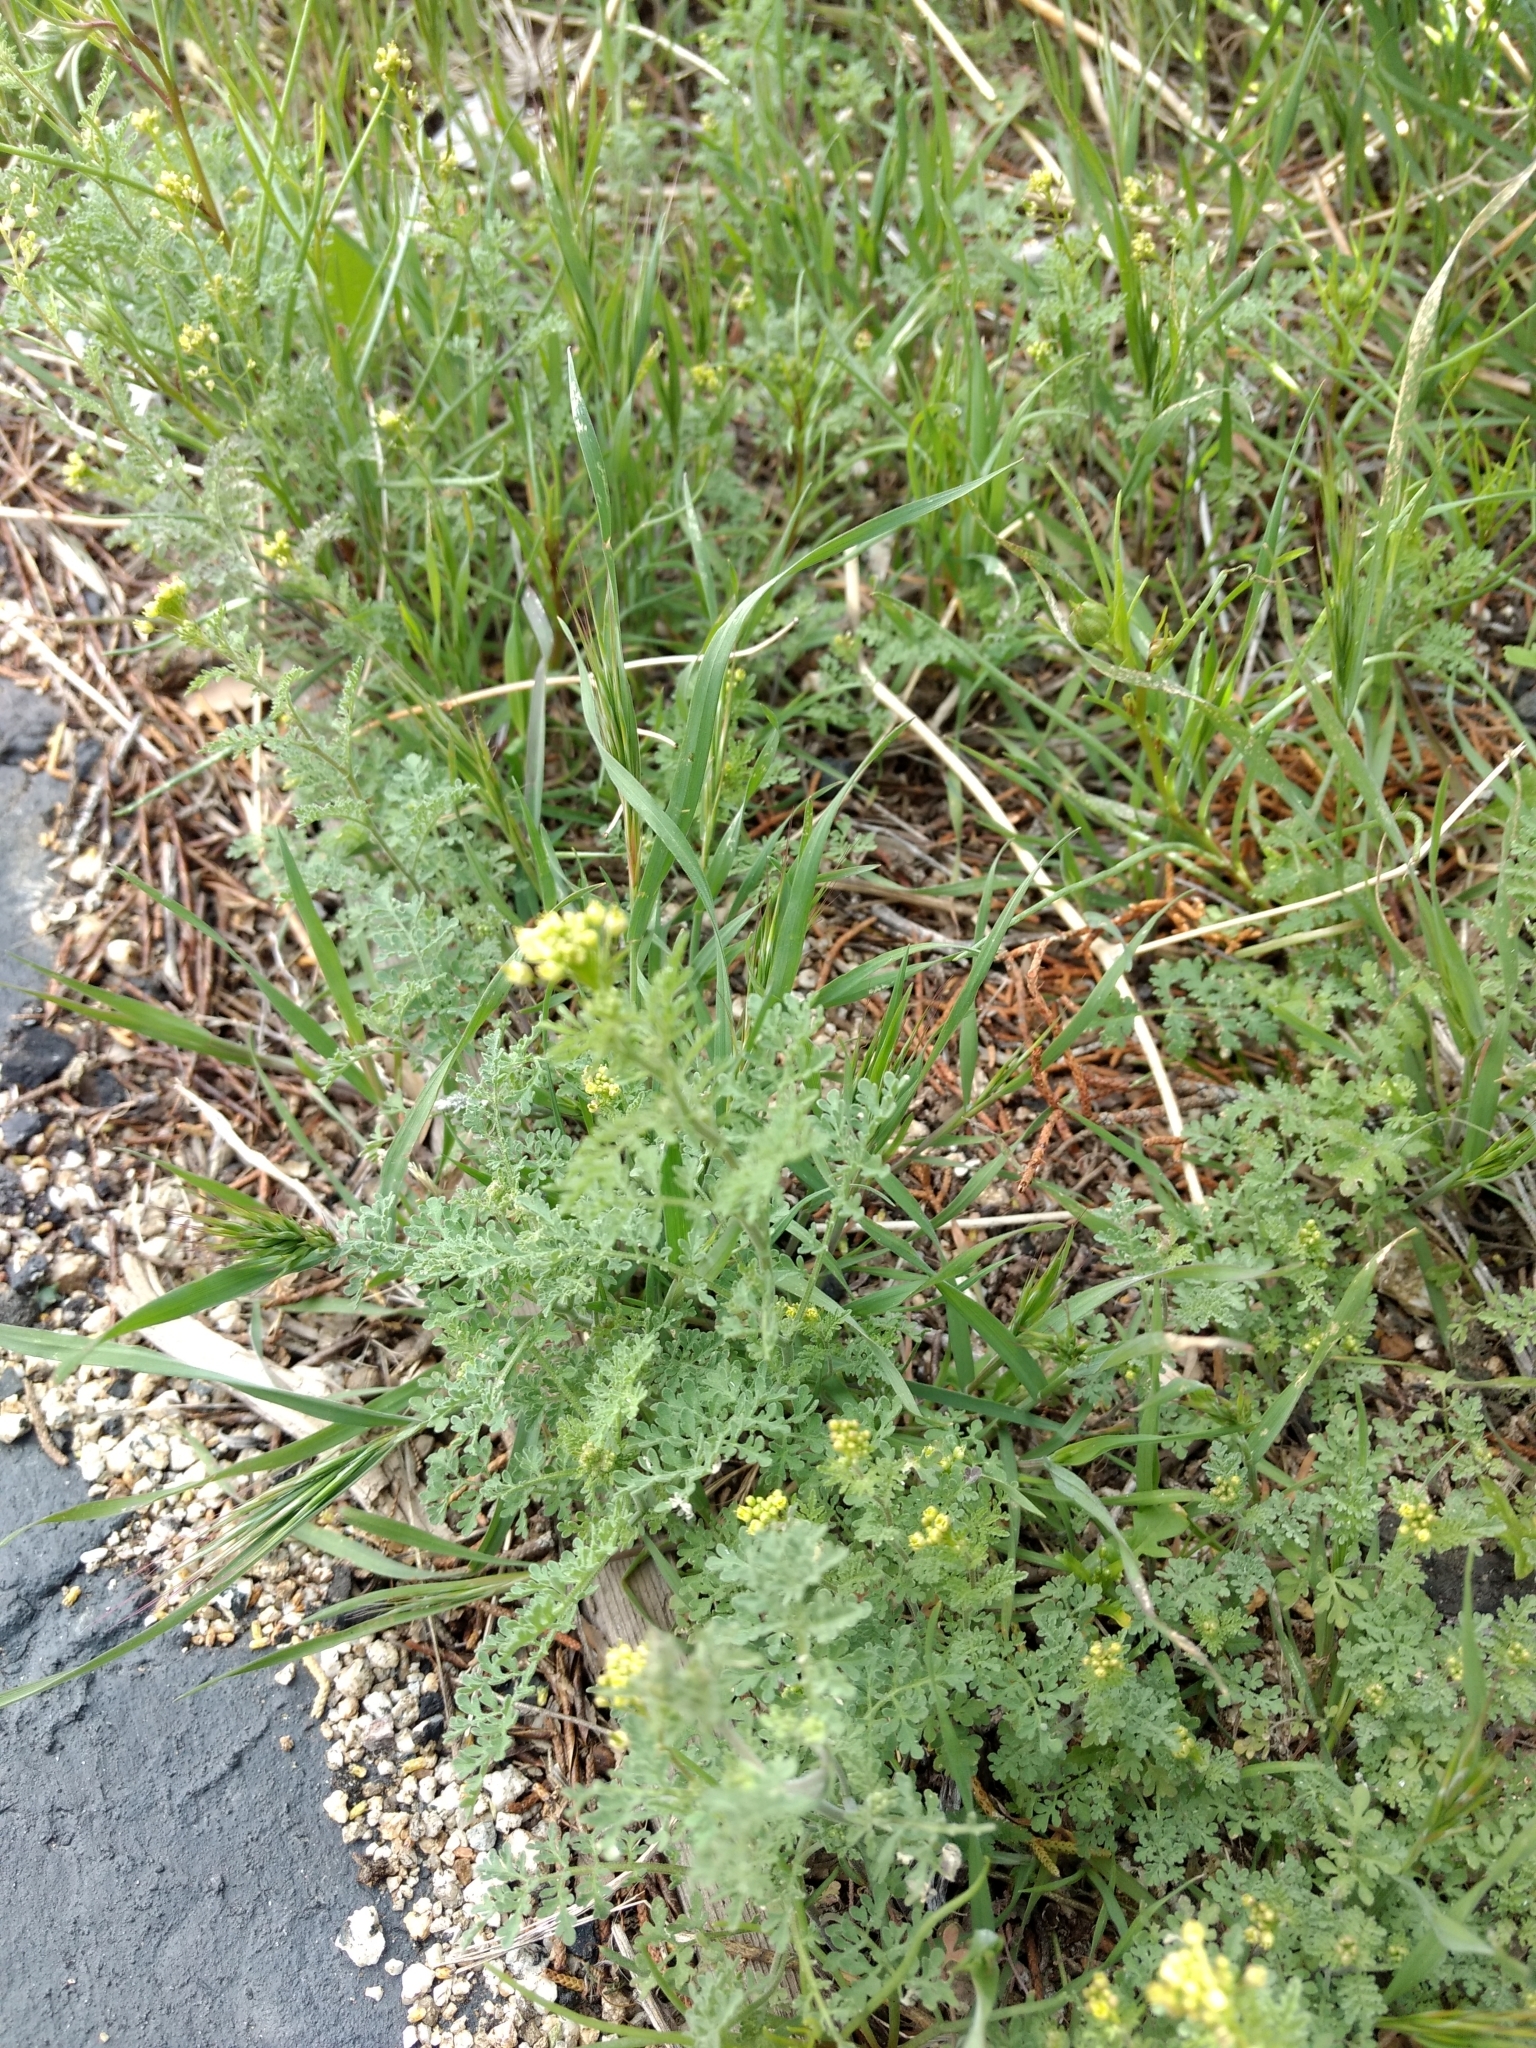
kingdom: Plantae
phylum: Tracheophyta
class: Magnoliopsida
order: Brassicales
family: Brassicaceae
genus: Descurainia
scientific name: Descurainia pinnata
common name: Western tansy mustard
